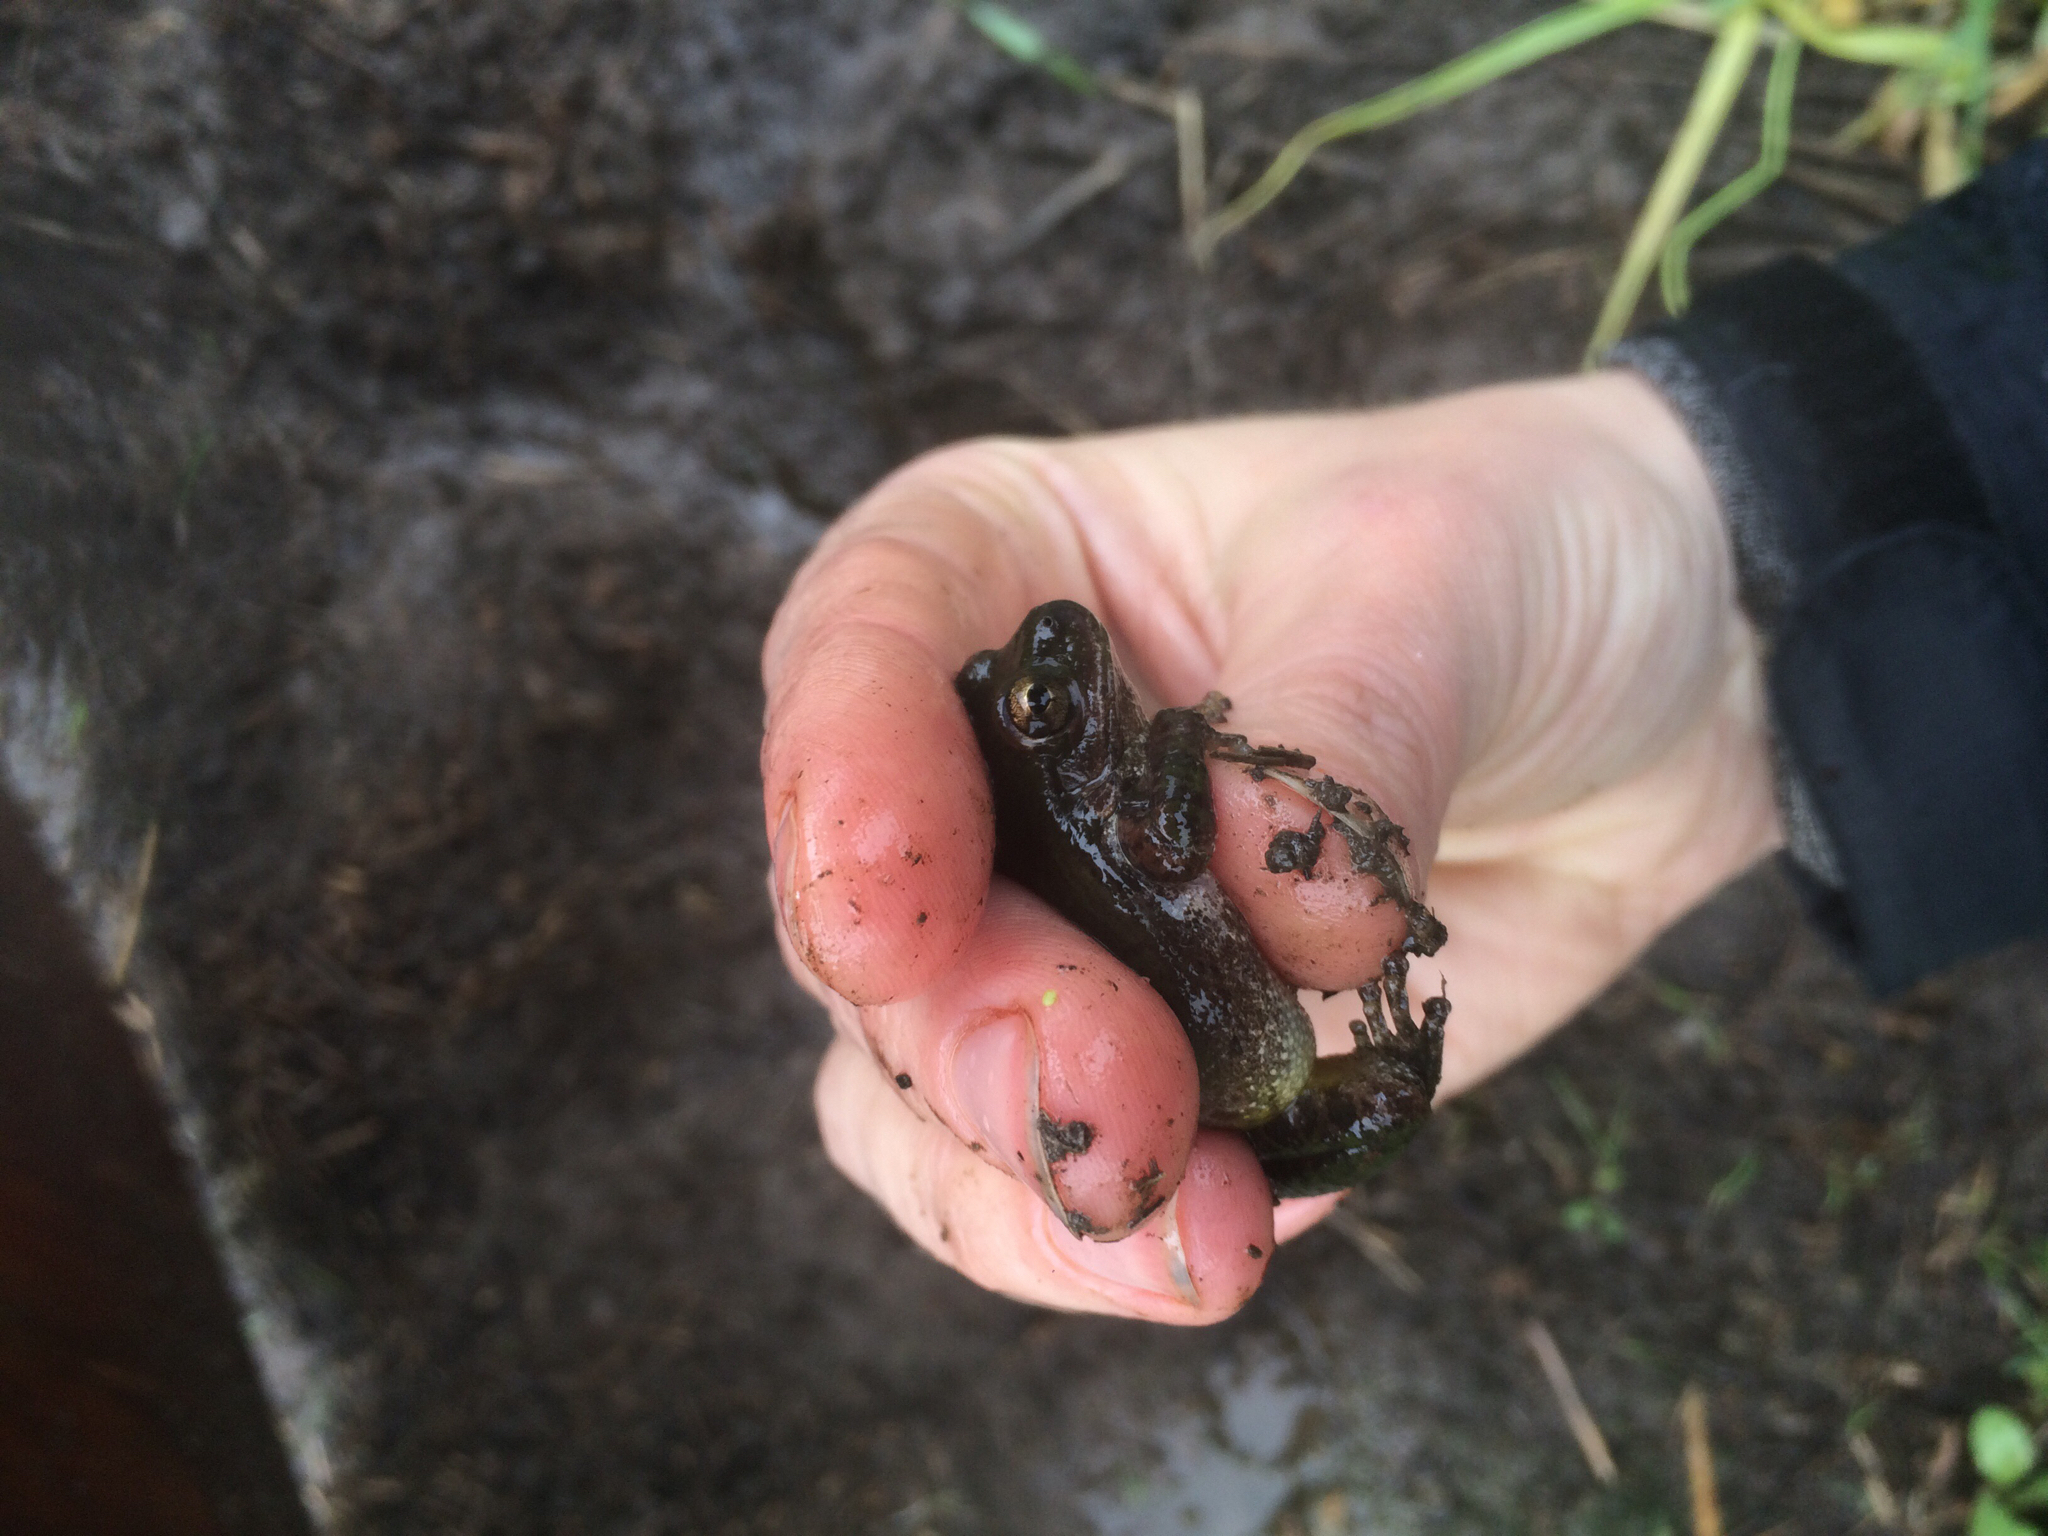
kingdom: Animalia
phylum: Chordata
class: Amphibia
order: Anura
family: Hylidae
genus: Pseudacris
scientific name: Pseudacris regilla
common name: Pacific chorus frog
